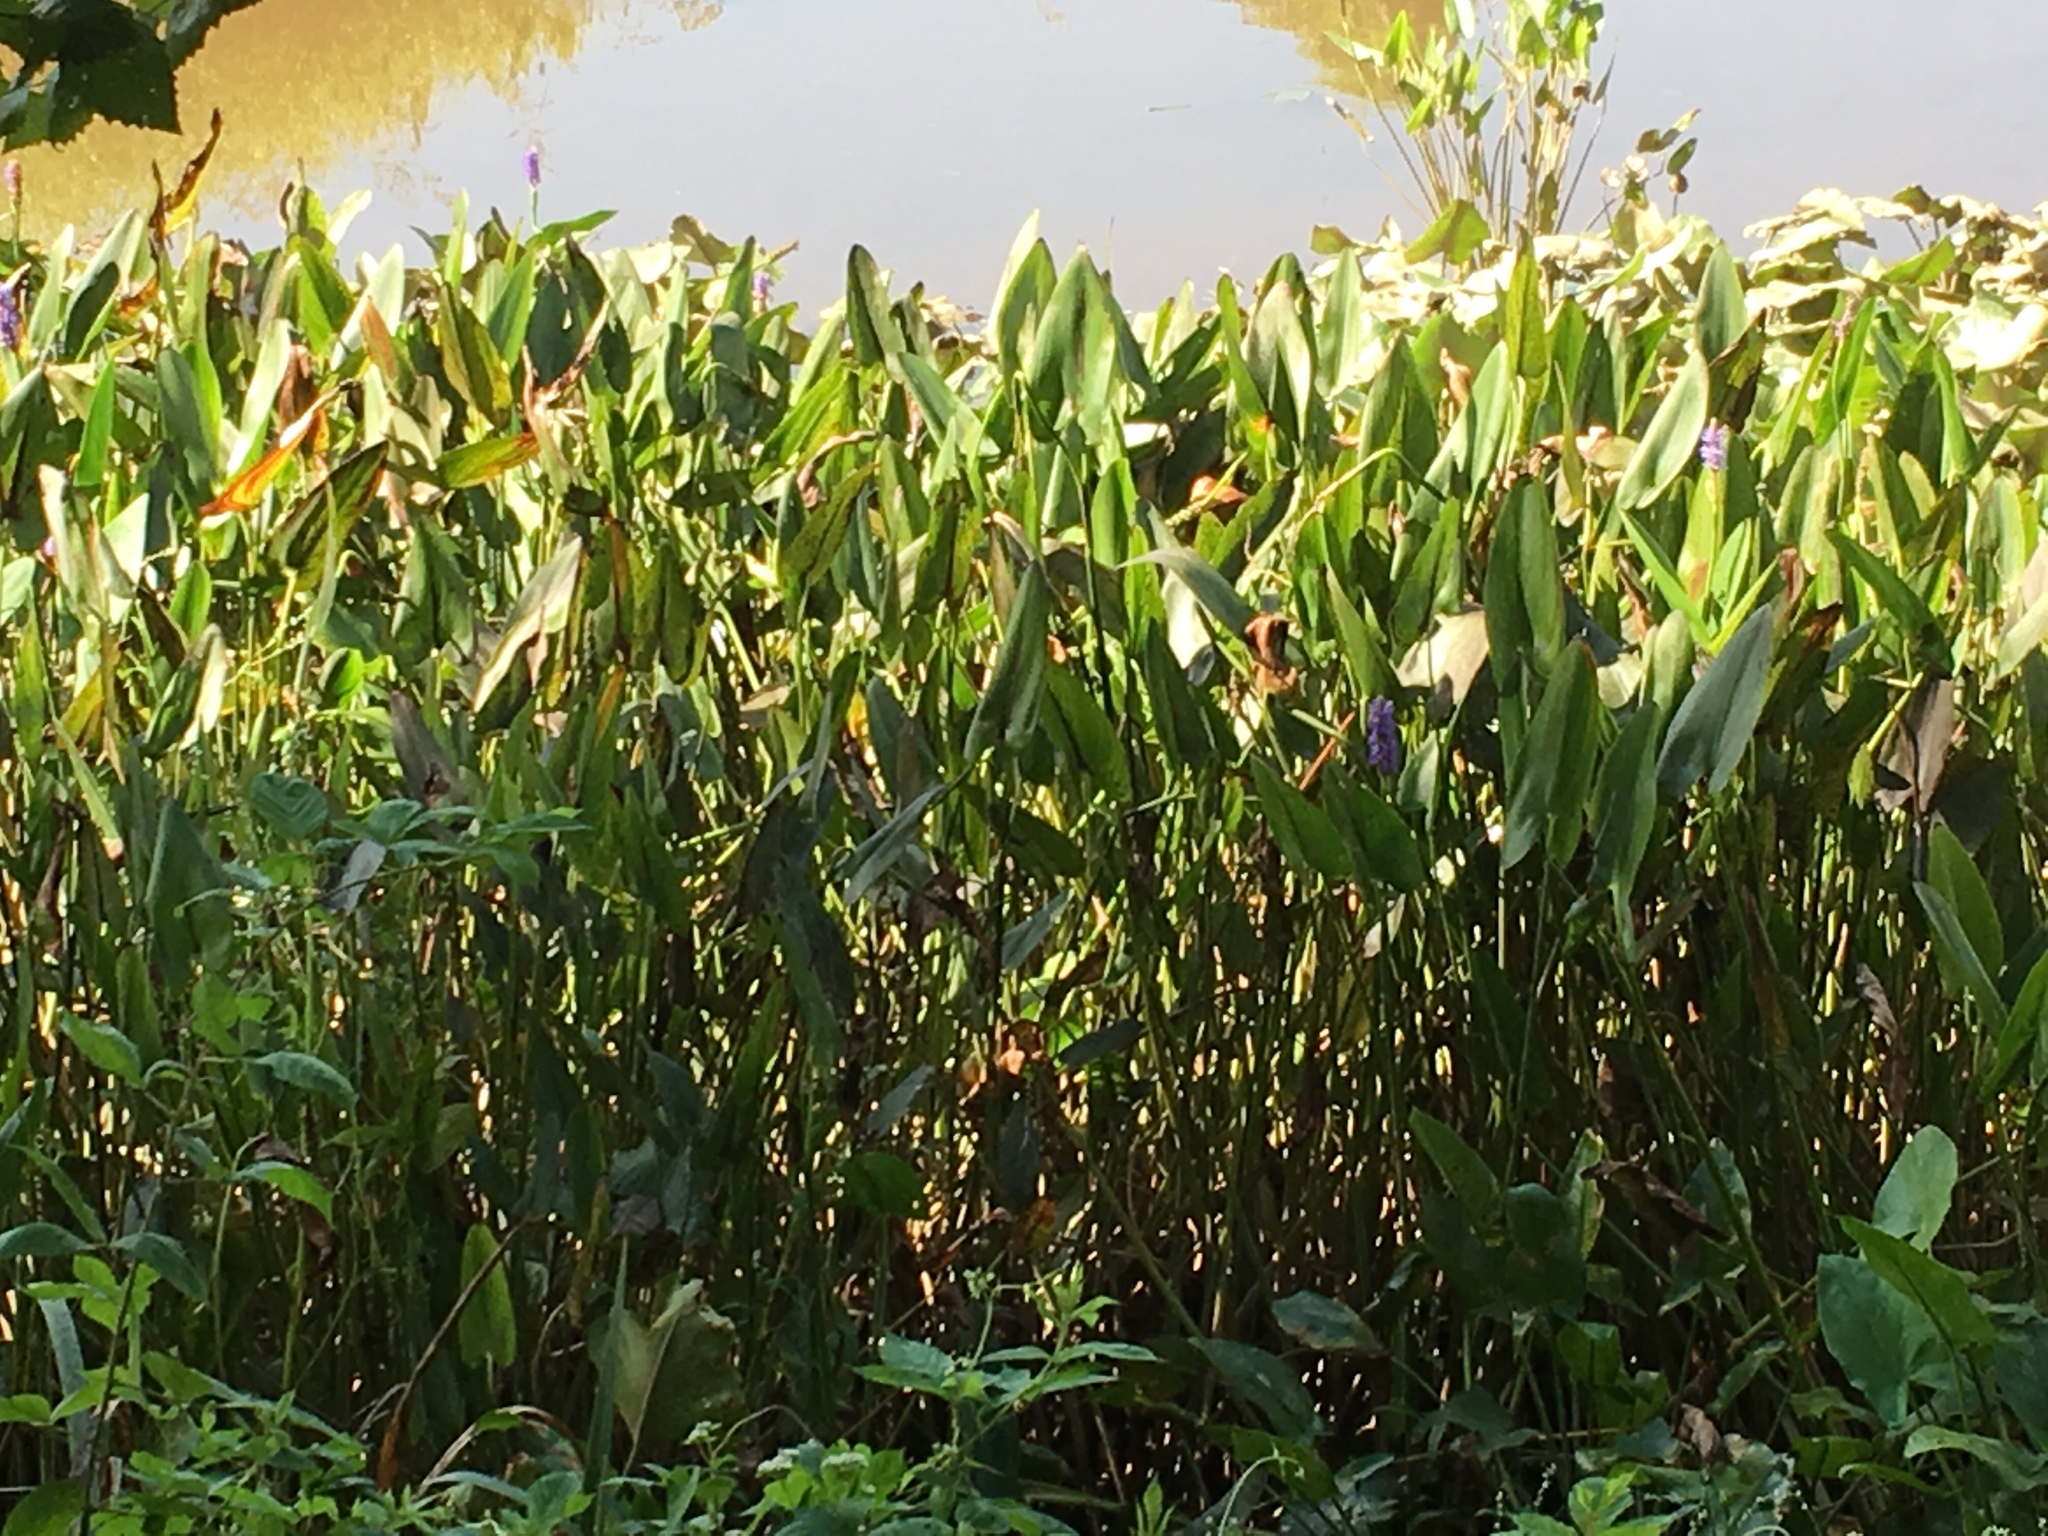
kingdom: Plantae
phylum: Tracheophyta
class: Liliopsida
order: Commelinales
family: Pontederiaceae
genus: Pontederia
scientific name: Pontederia cordata
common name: Pickerelweed
